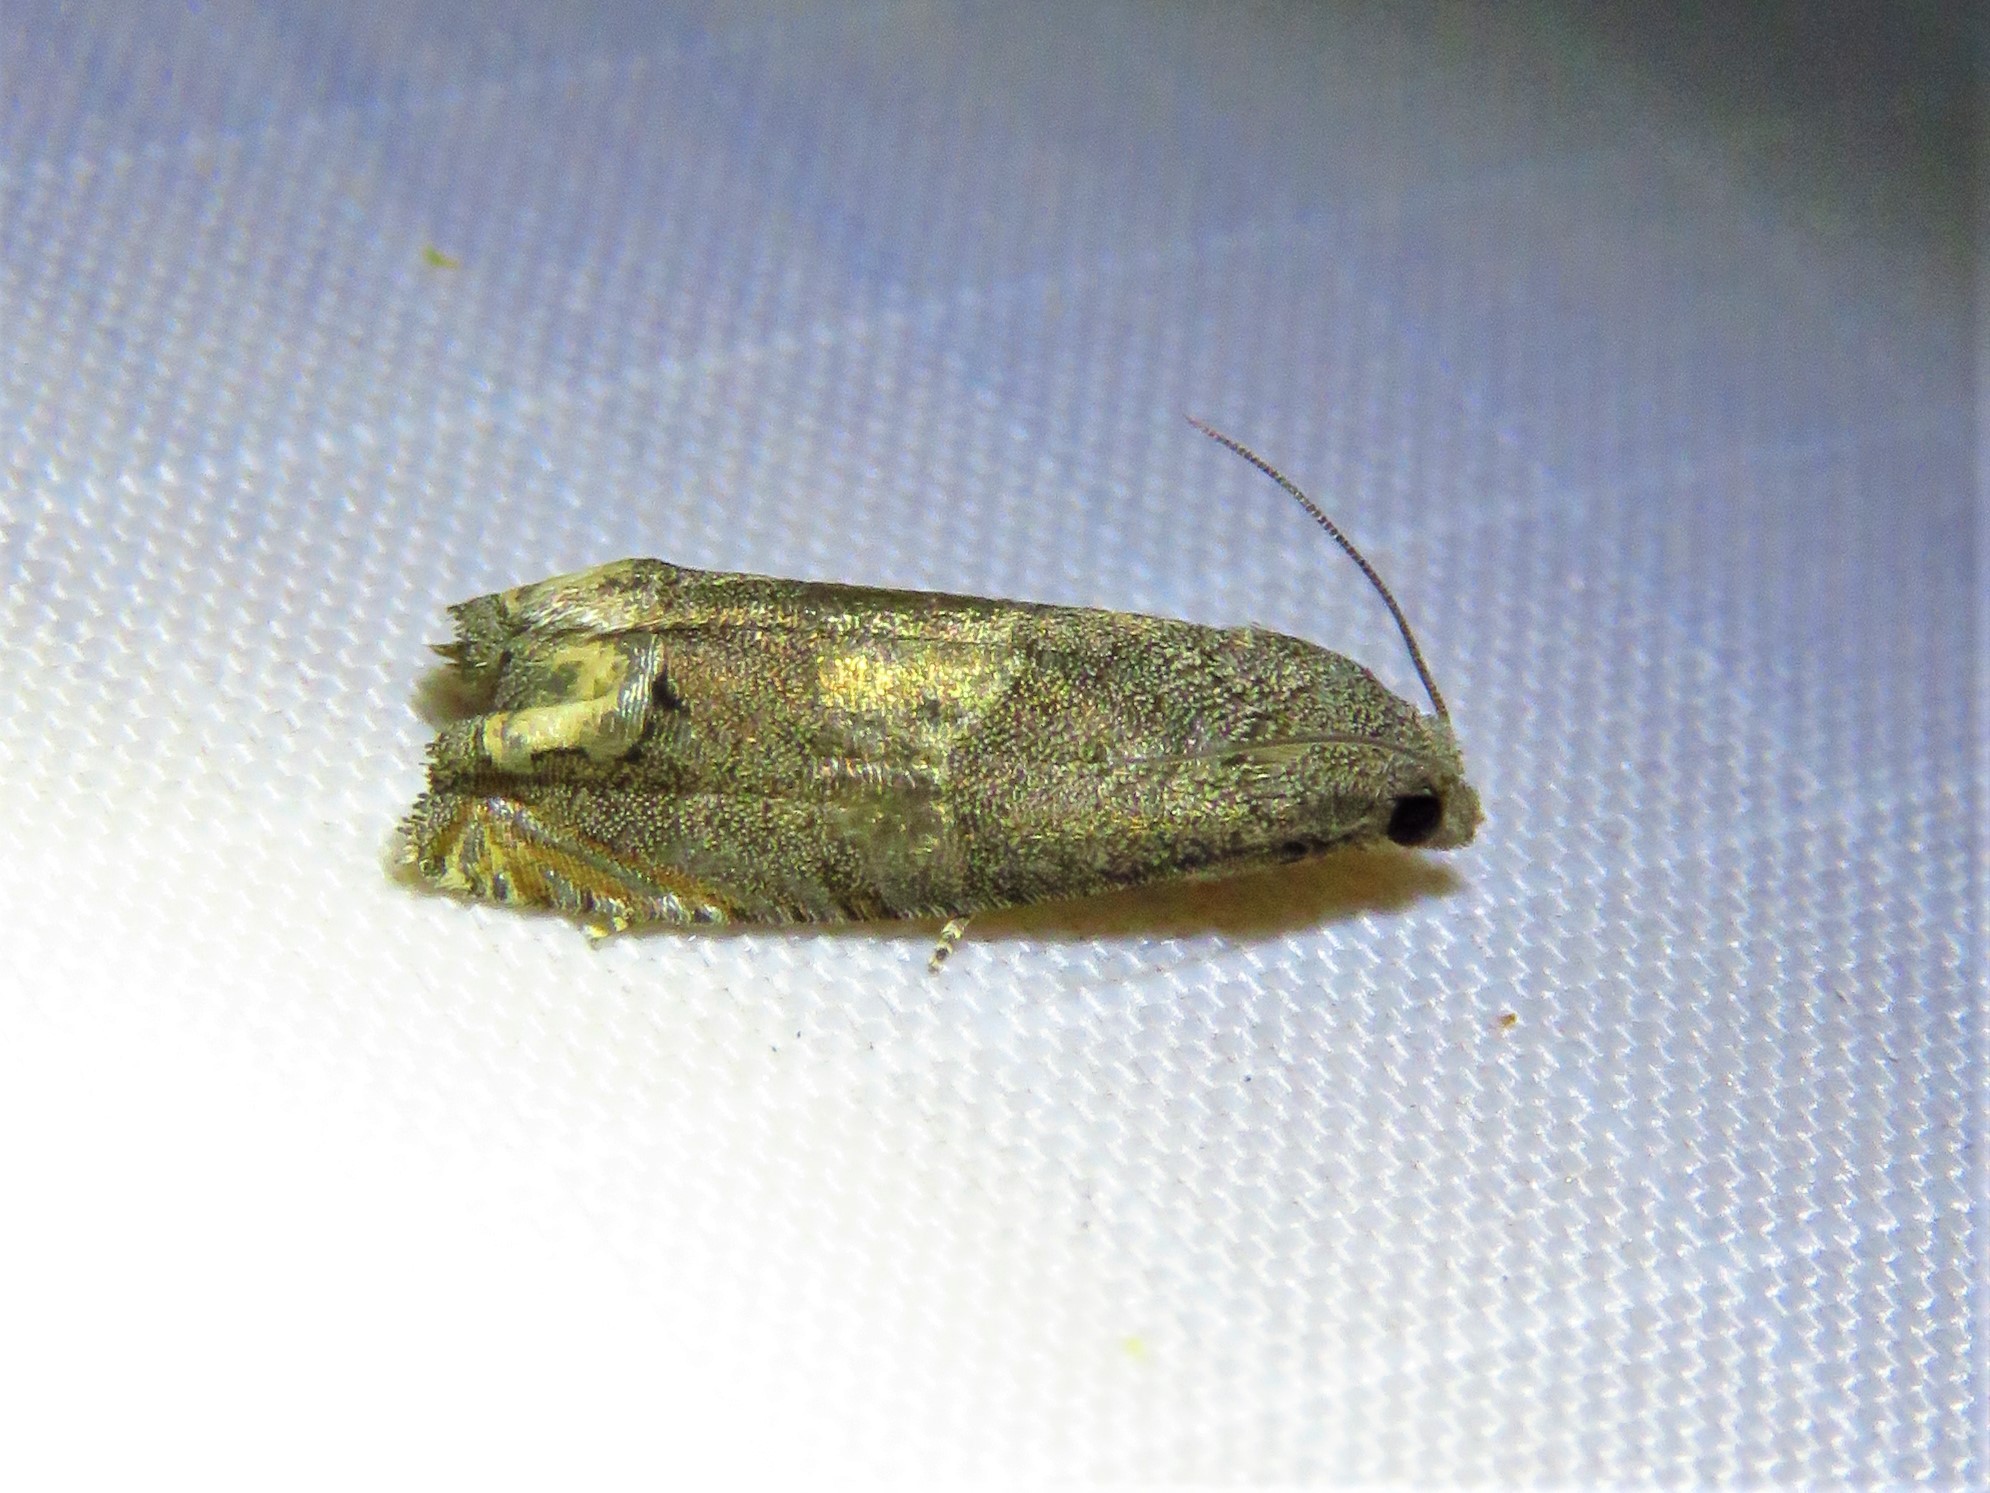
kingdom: Animalia
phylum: Arthropoda
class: Insecta
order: Lepidoptera
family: Tortricidae
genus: Epiblema
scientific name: Epiblema strenuana
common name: Ragweed borer moth
